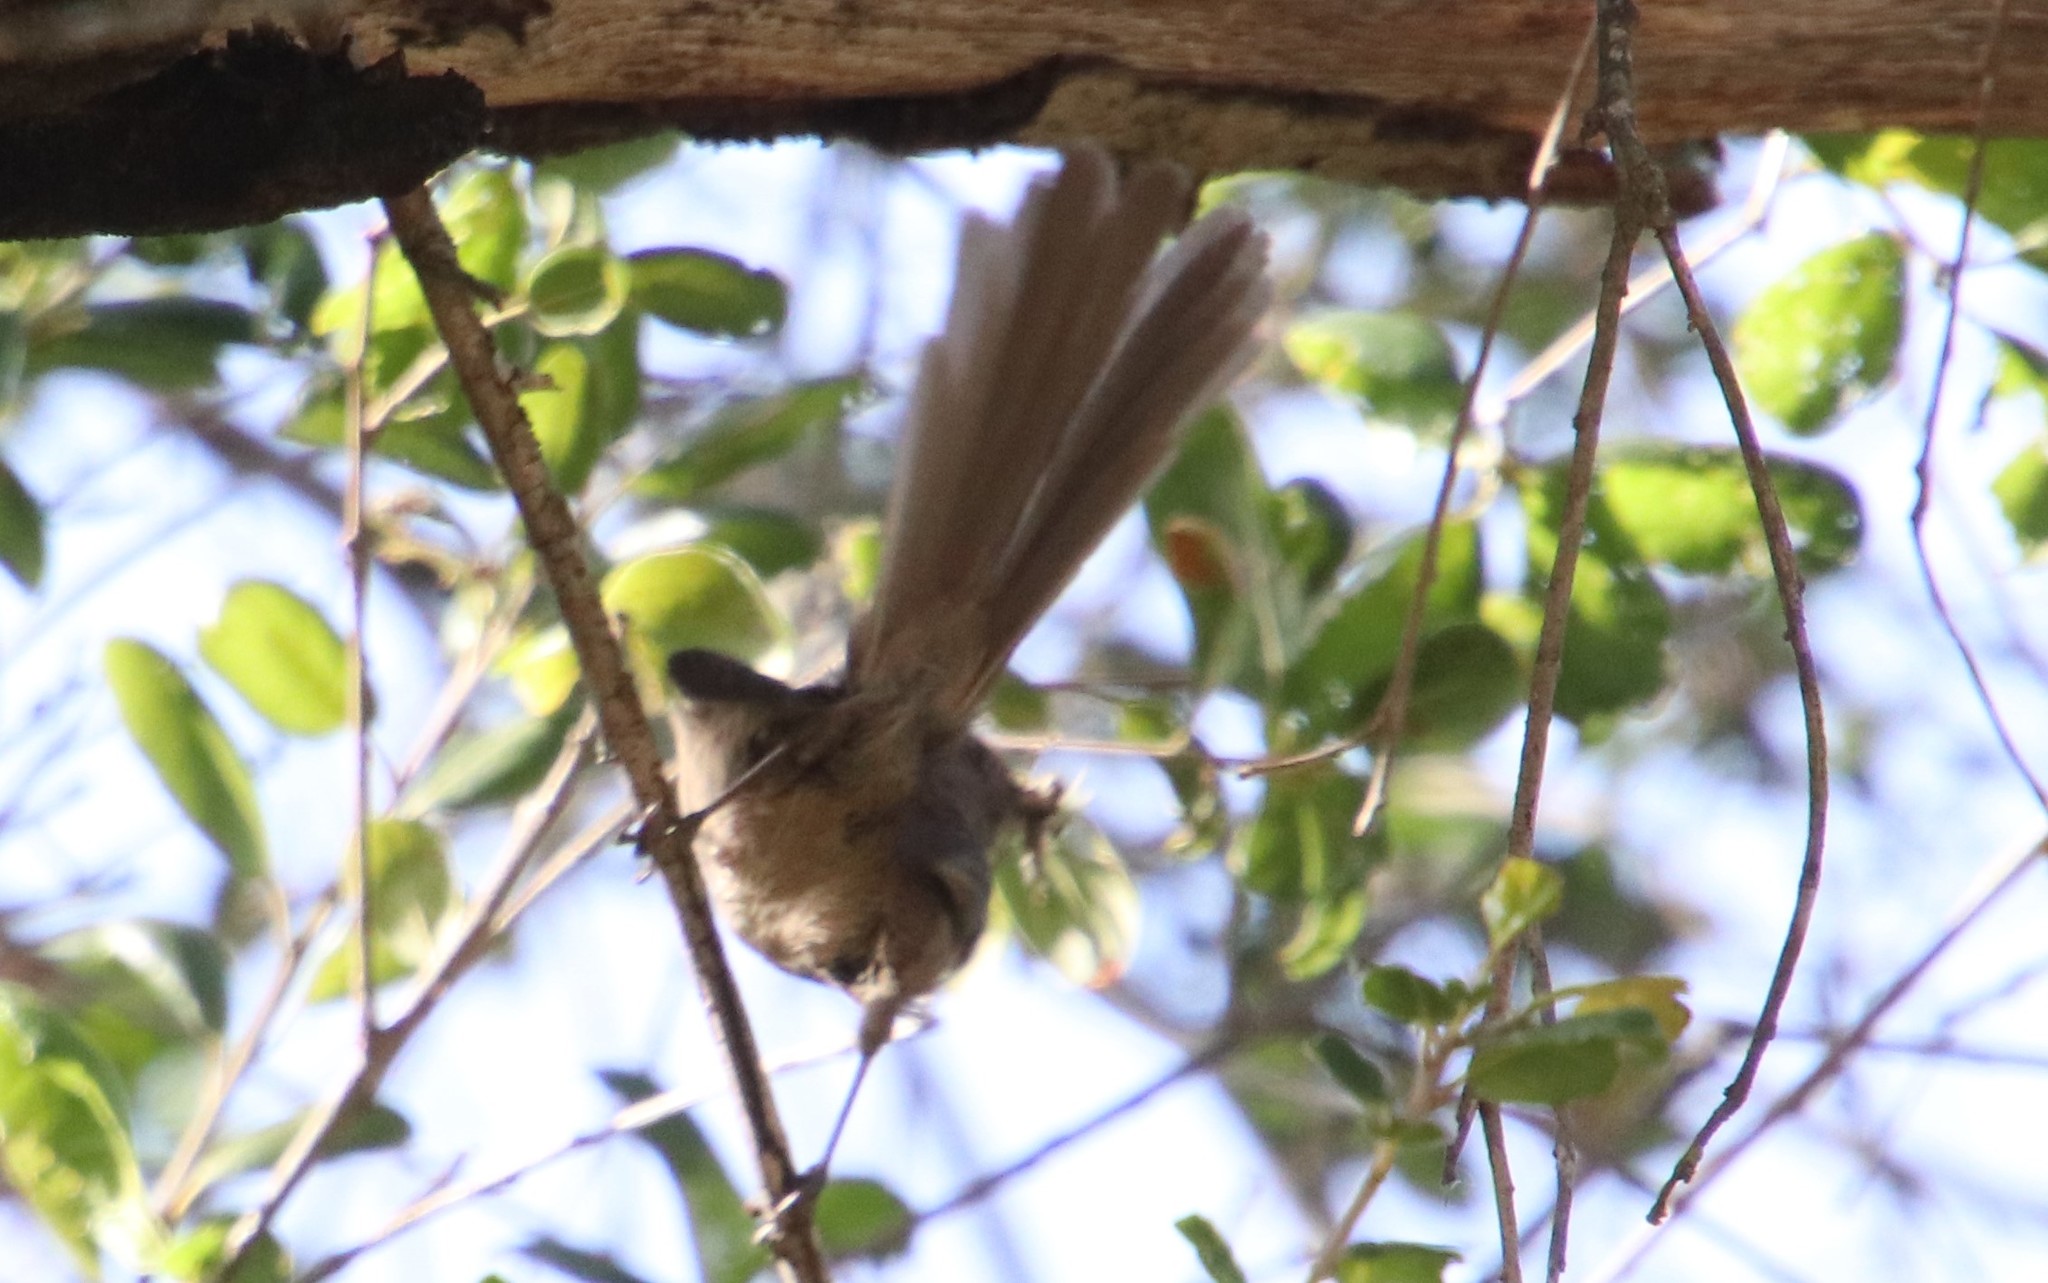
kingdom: Animalia
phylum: Chordata
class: Aves
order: Passeriformes
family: Sylviidae
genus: Chamaea
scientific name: Chamaea fasciata
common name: Wrentit
